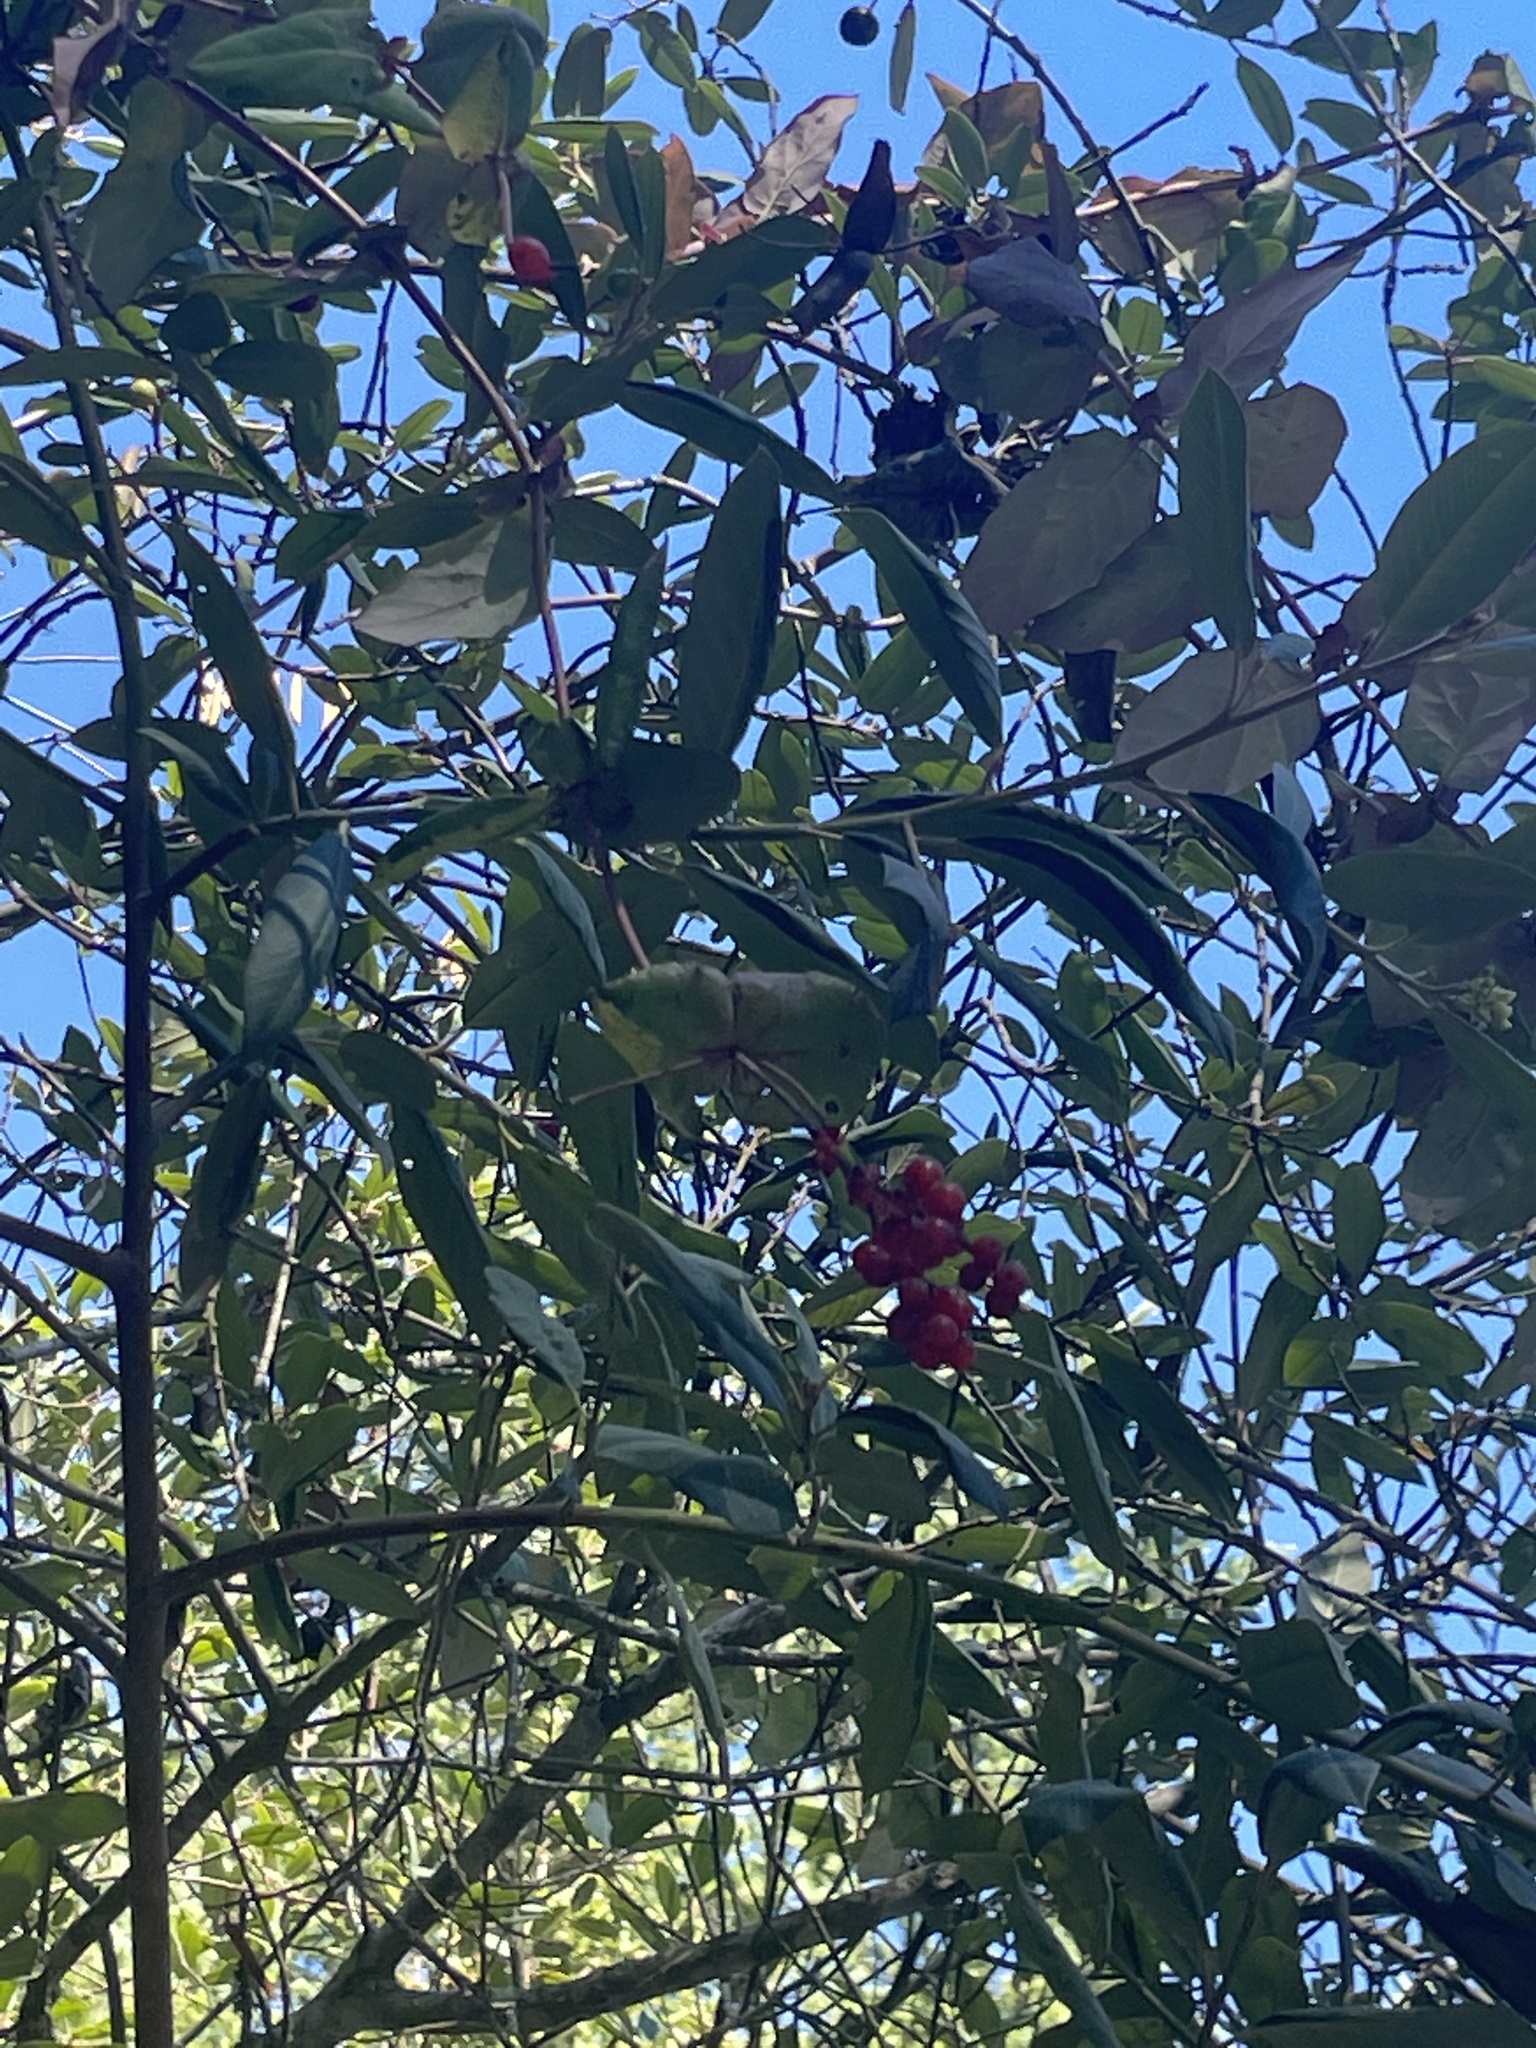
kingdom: Plantae
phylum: Tracheophyta
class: Magnoliopsida
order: Dipsacales
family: Caprifoliaceae
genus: Lonicera
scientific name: Lonicera hispidula
